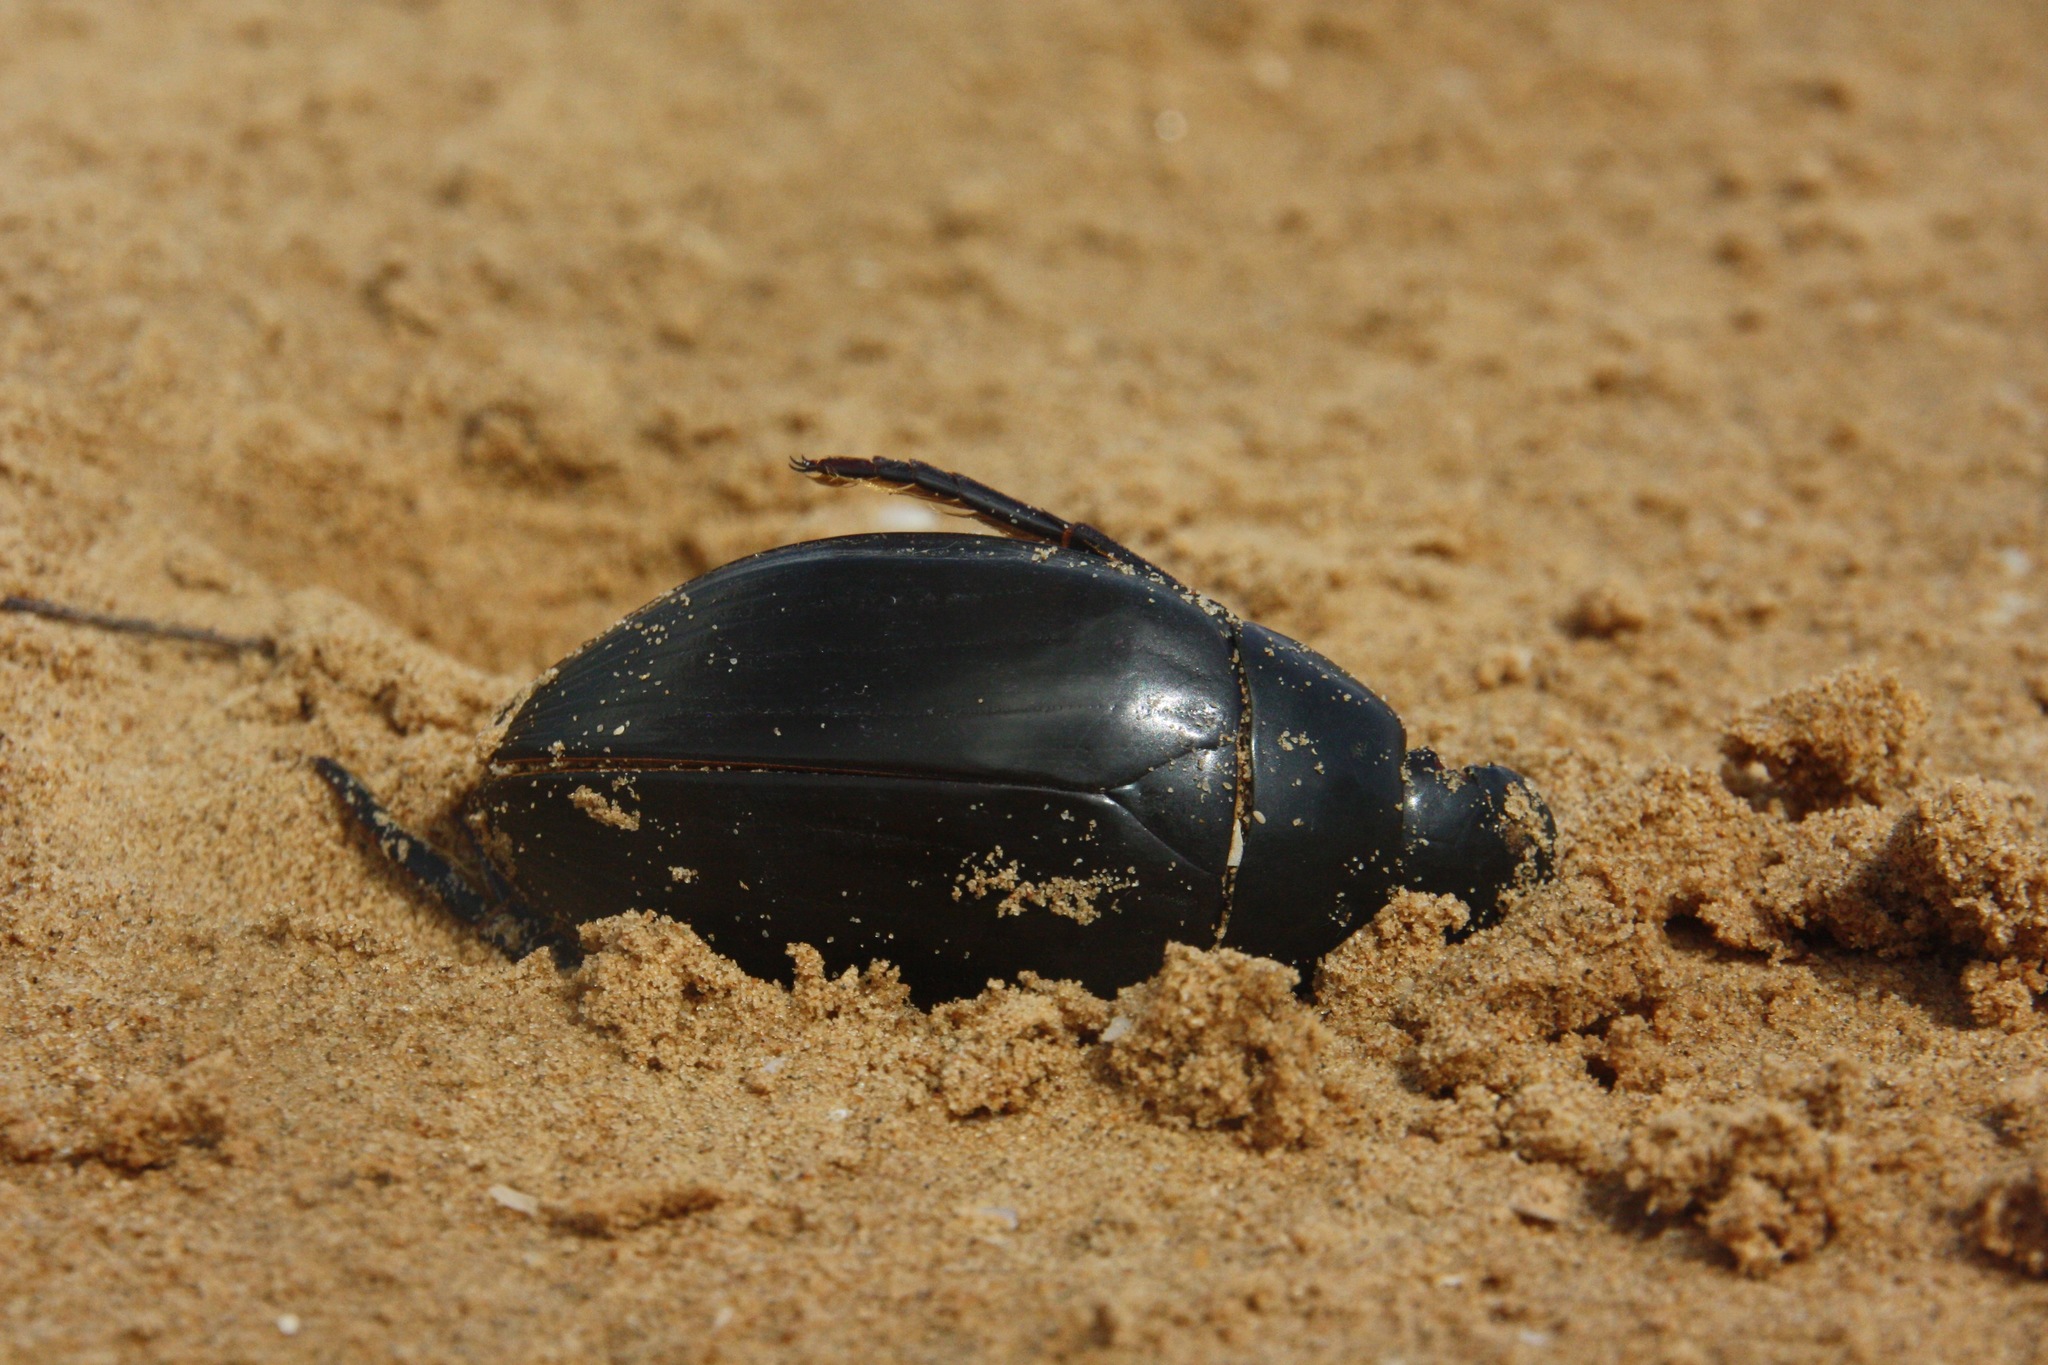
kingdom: Animalia
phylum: Arthropoda
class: Insecta
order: Coleoptera
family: Hydrophilidae
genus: Hydrophilus
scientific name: Hydrophilus piceus
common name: Great silver water beetle
